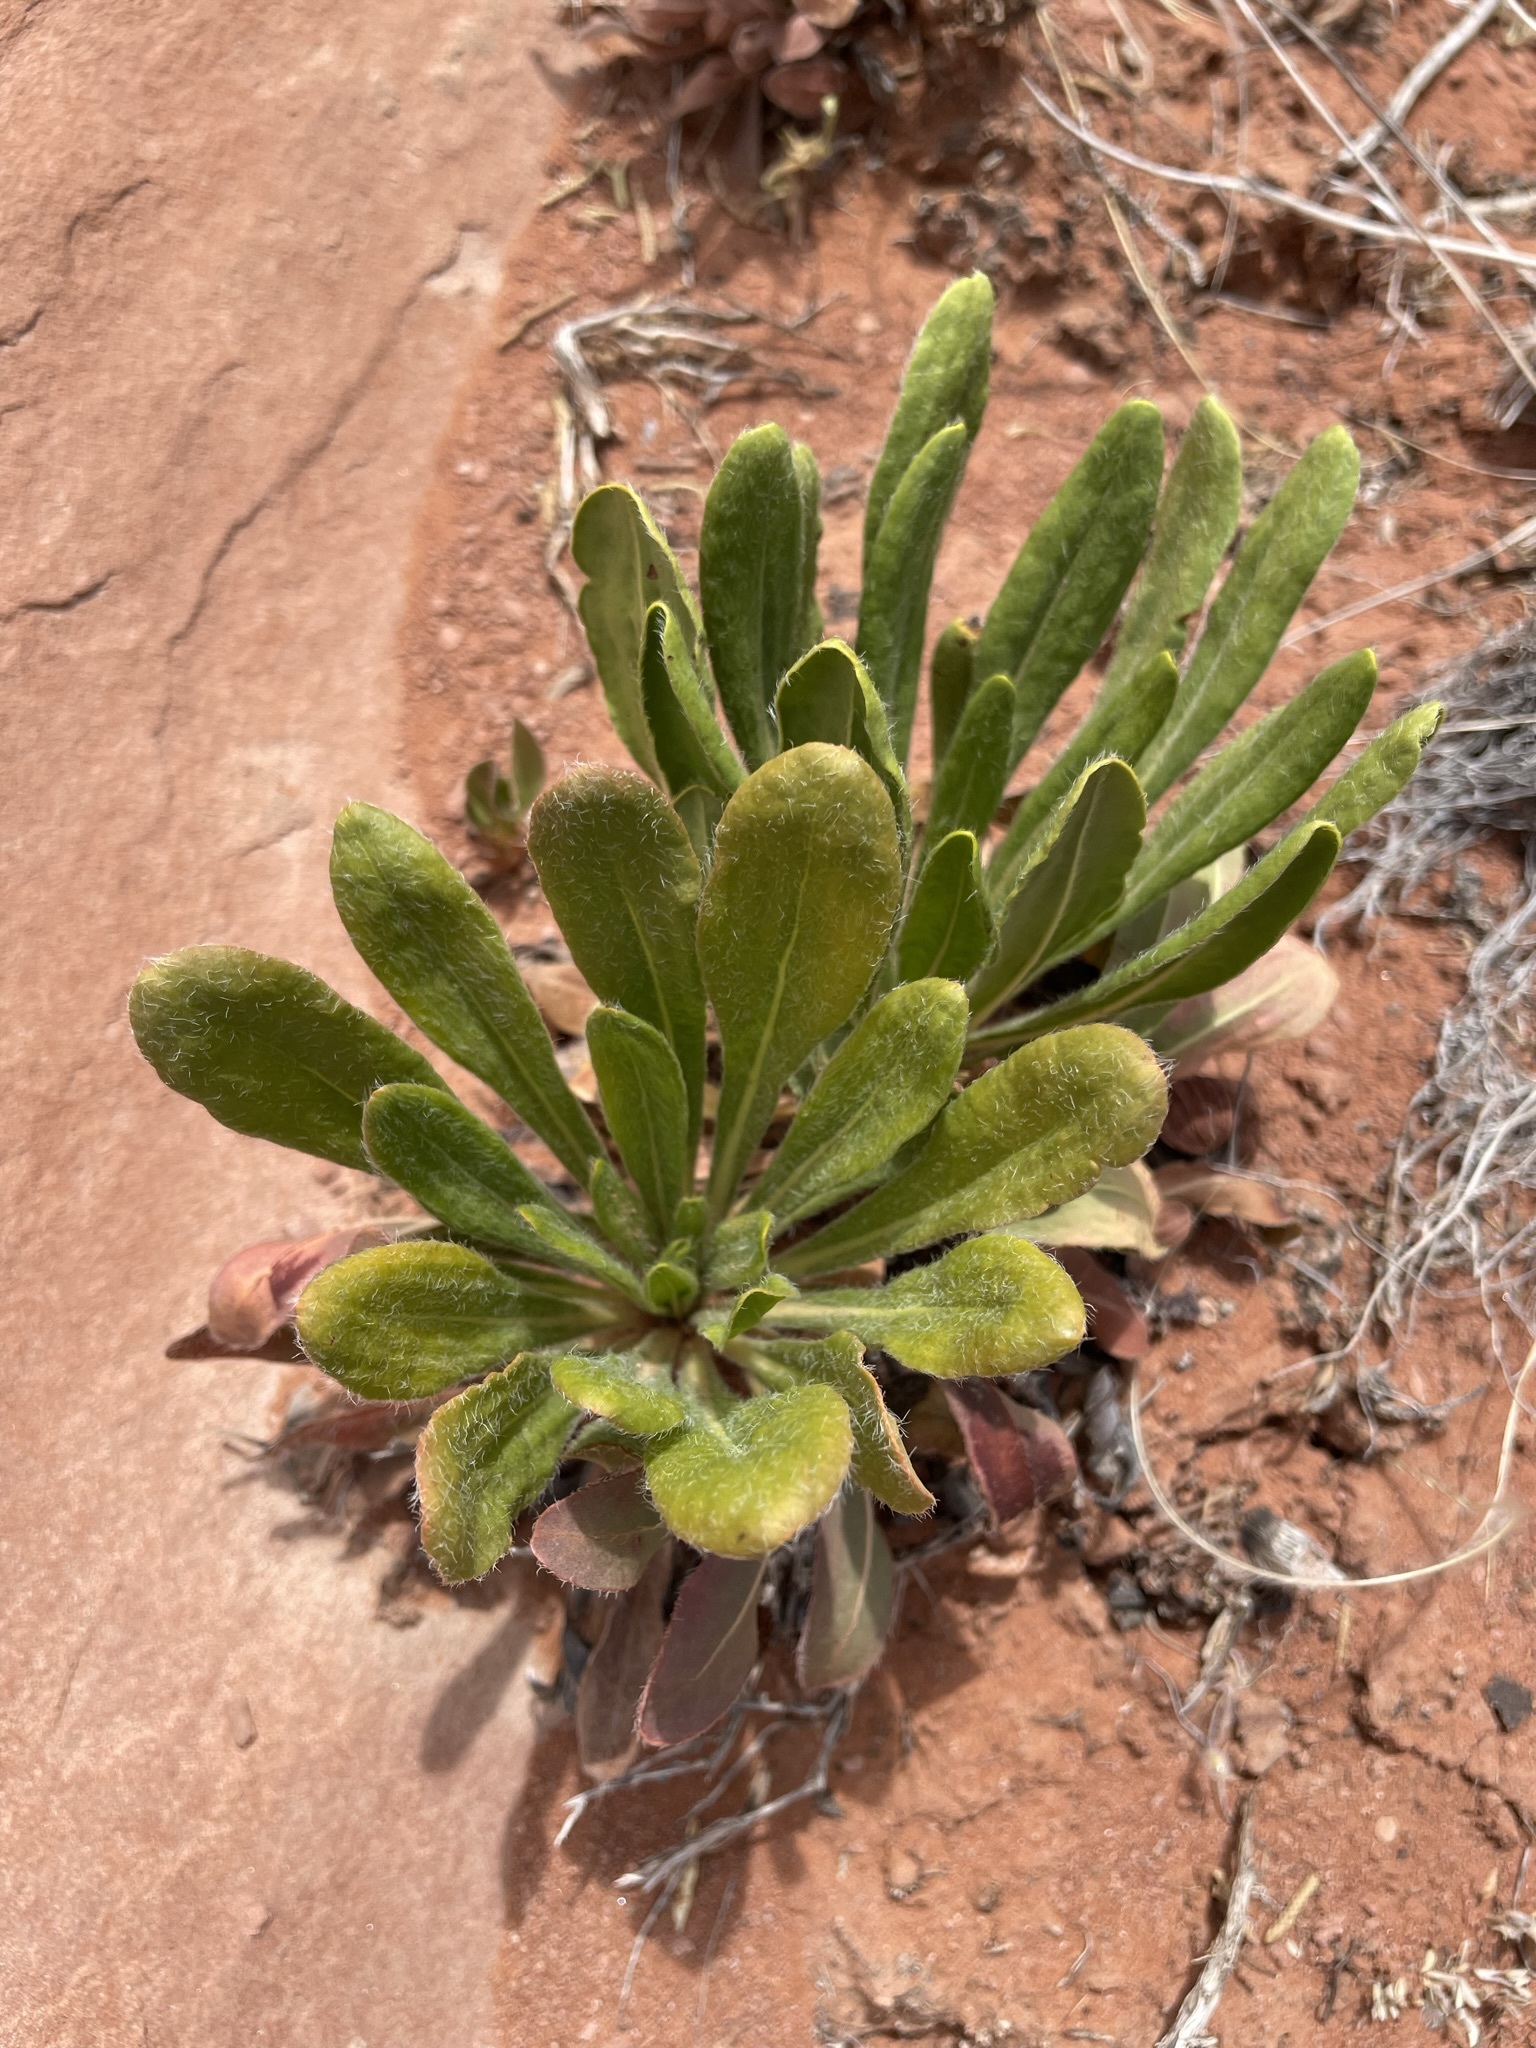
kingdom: Plantae
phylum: Tracheophyta
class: Magnoliopsida
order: Caryophyllales
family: Polygonaceae
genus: Eriogonum
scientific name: Eriogonum alatum
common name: Winged eriogonum
